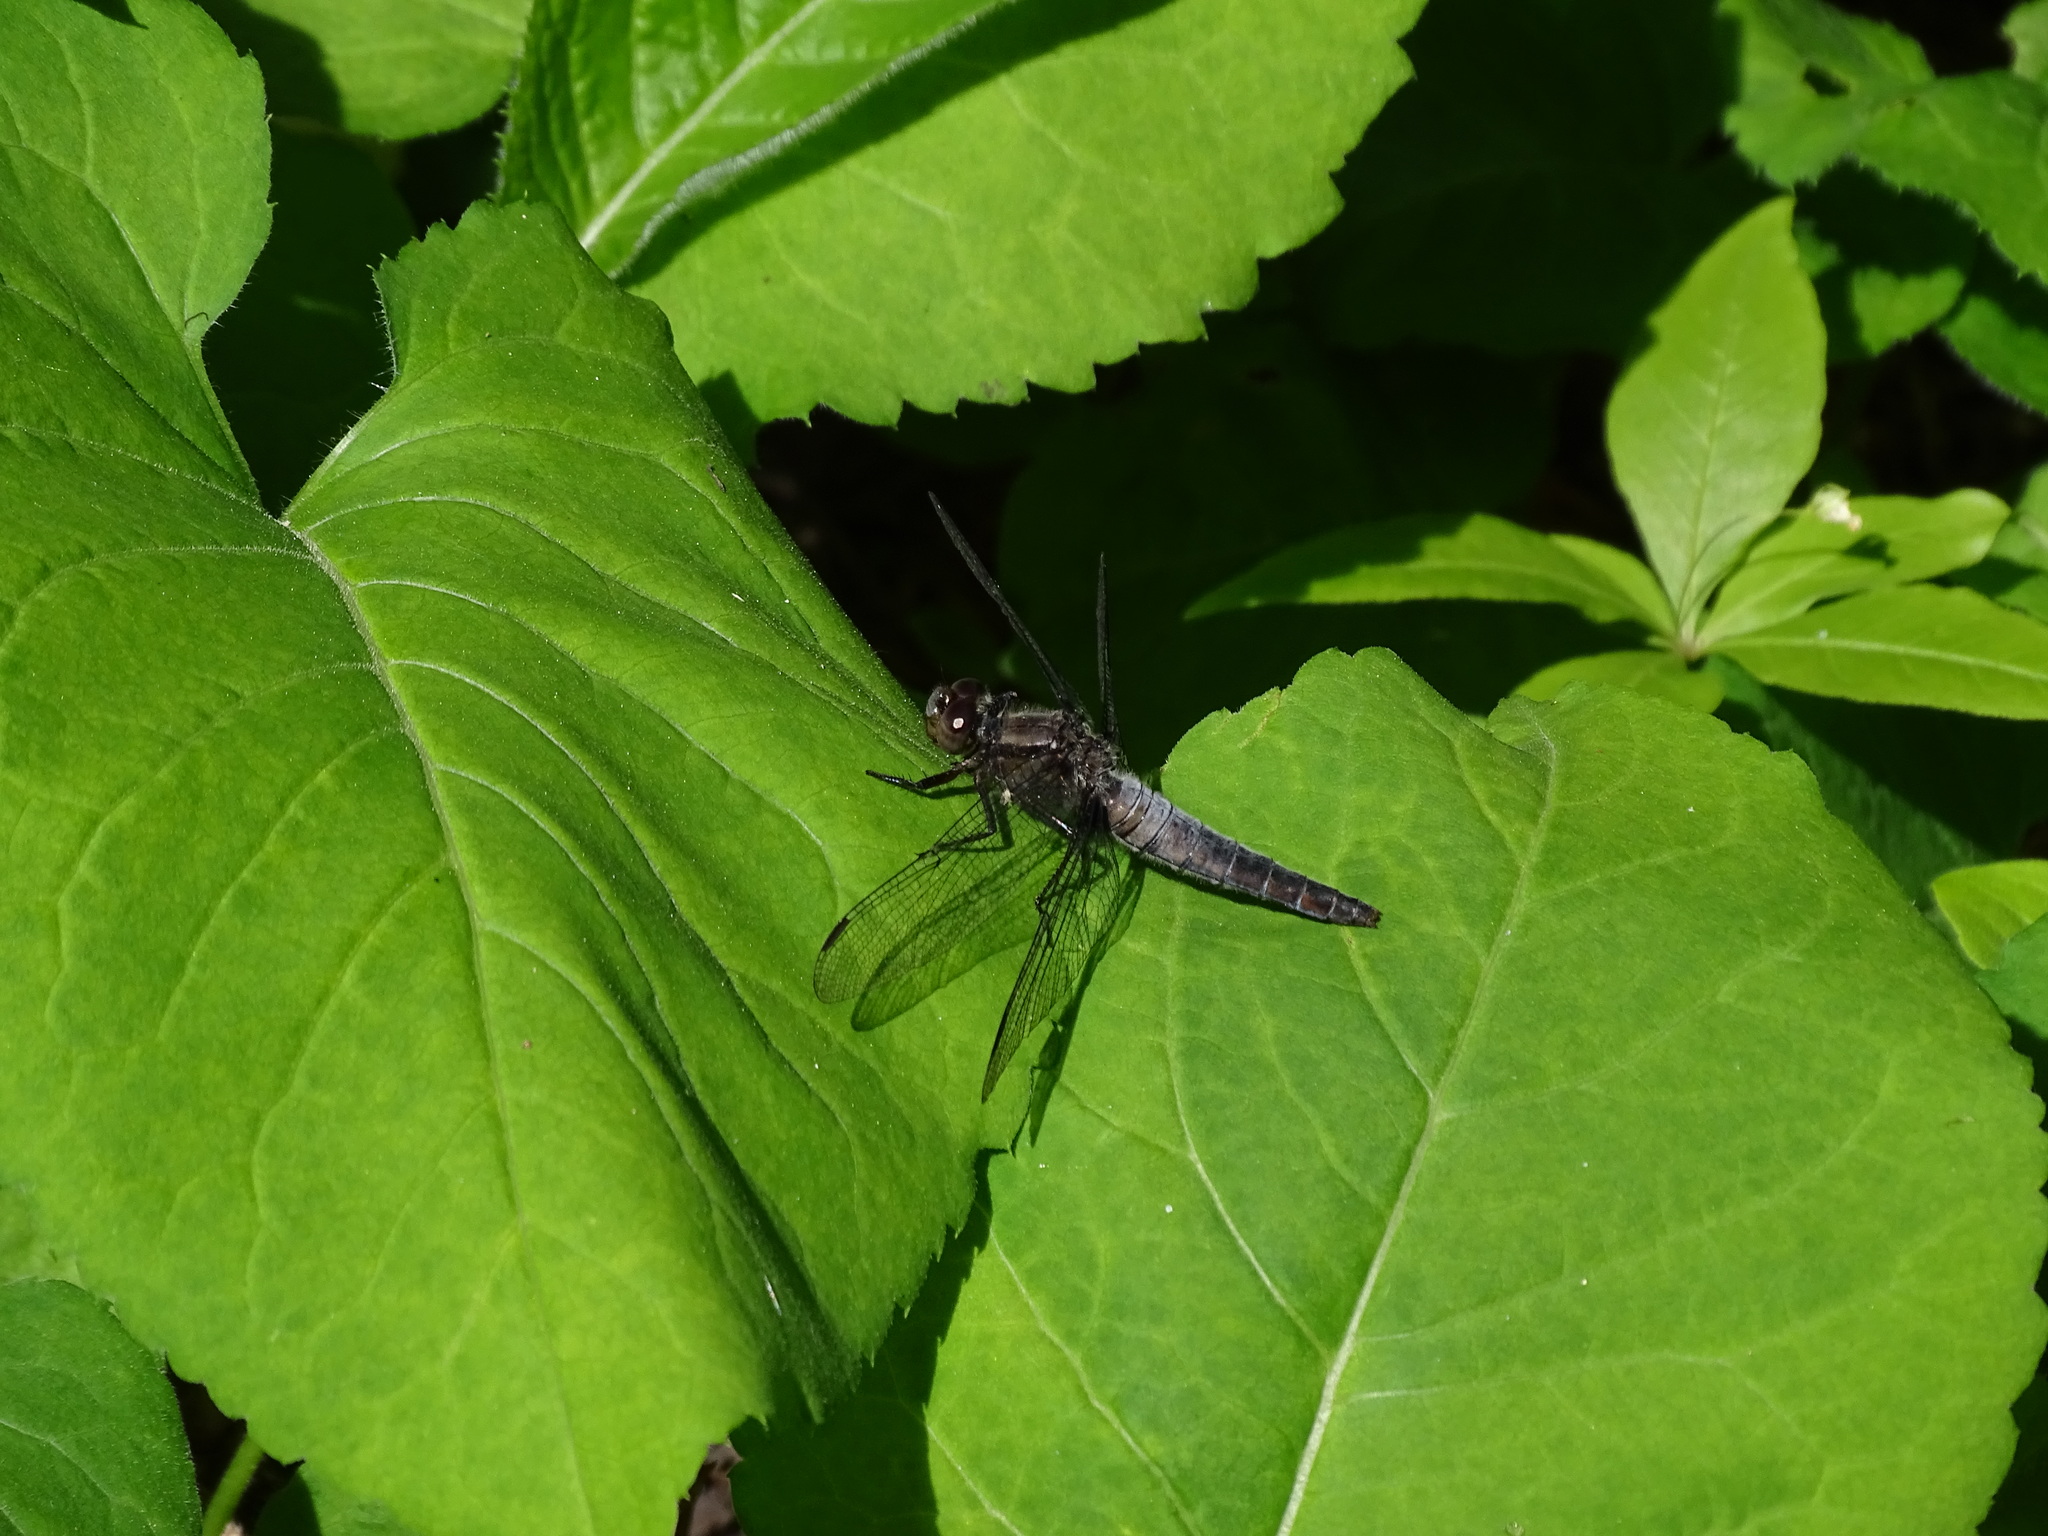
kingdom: Animalia
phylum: Arthropoda
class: Insecta
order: Odonata
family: Libellulidae
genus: Ladona
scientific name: Ladona julia
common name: Chalk-fronted corporal
